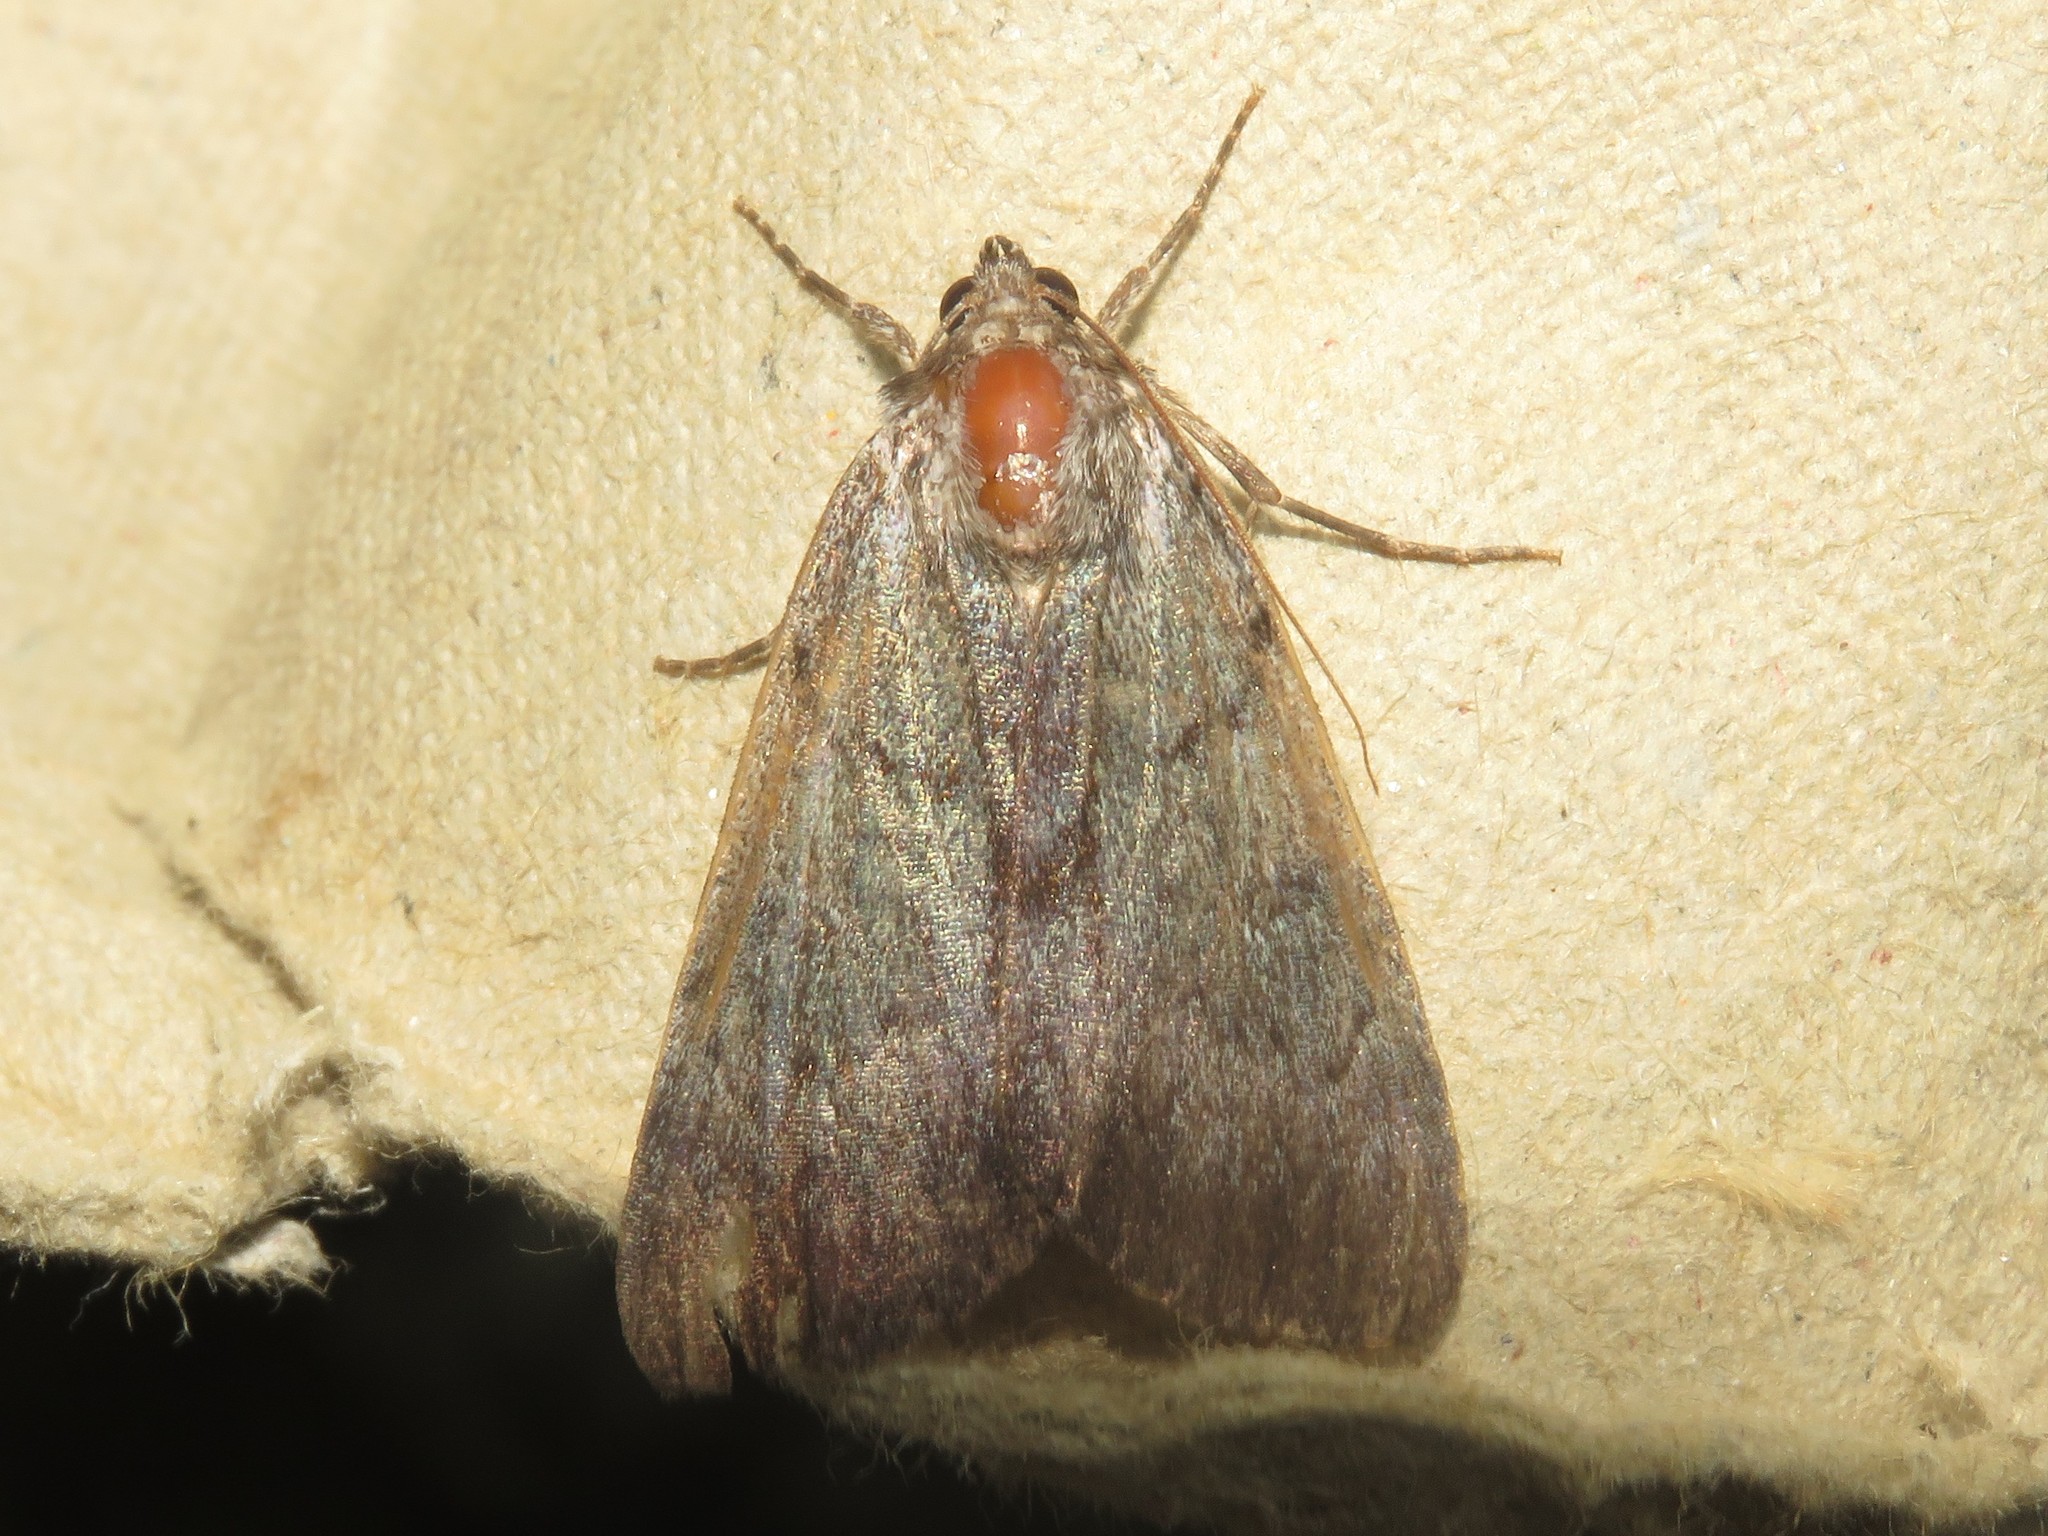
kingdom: Animalia
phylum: Arthropoda
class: Insecta
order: Lepidoptera
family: Erebidae
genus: Catocala
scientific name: Catocala sordida
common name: Sordid underwing
